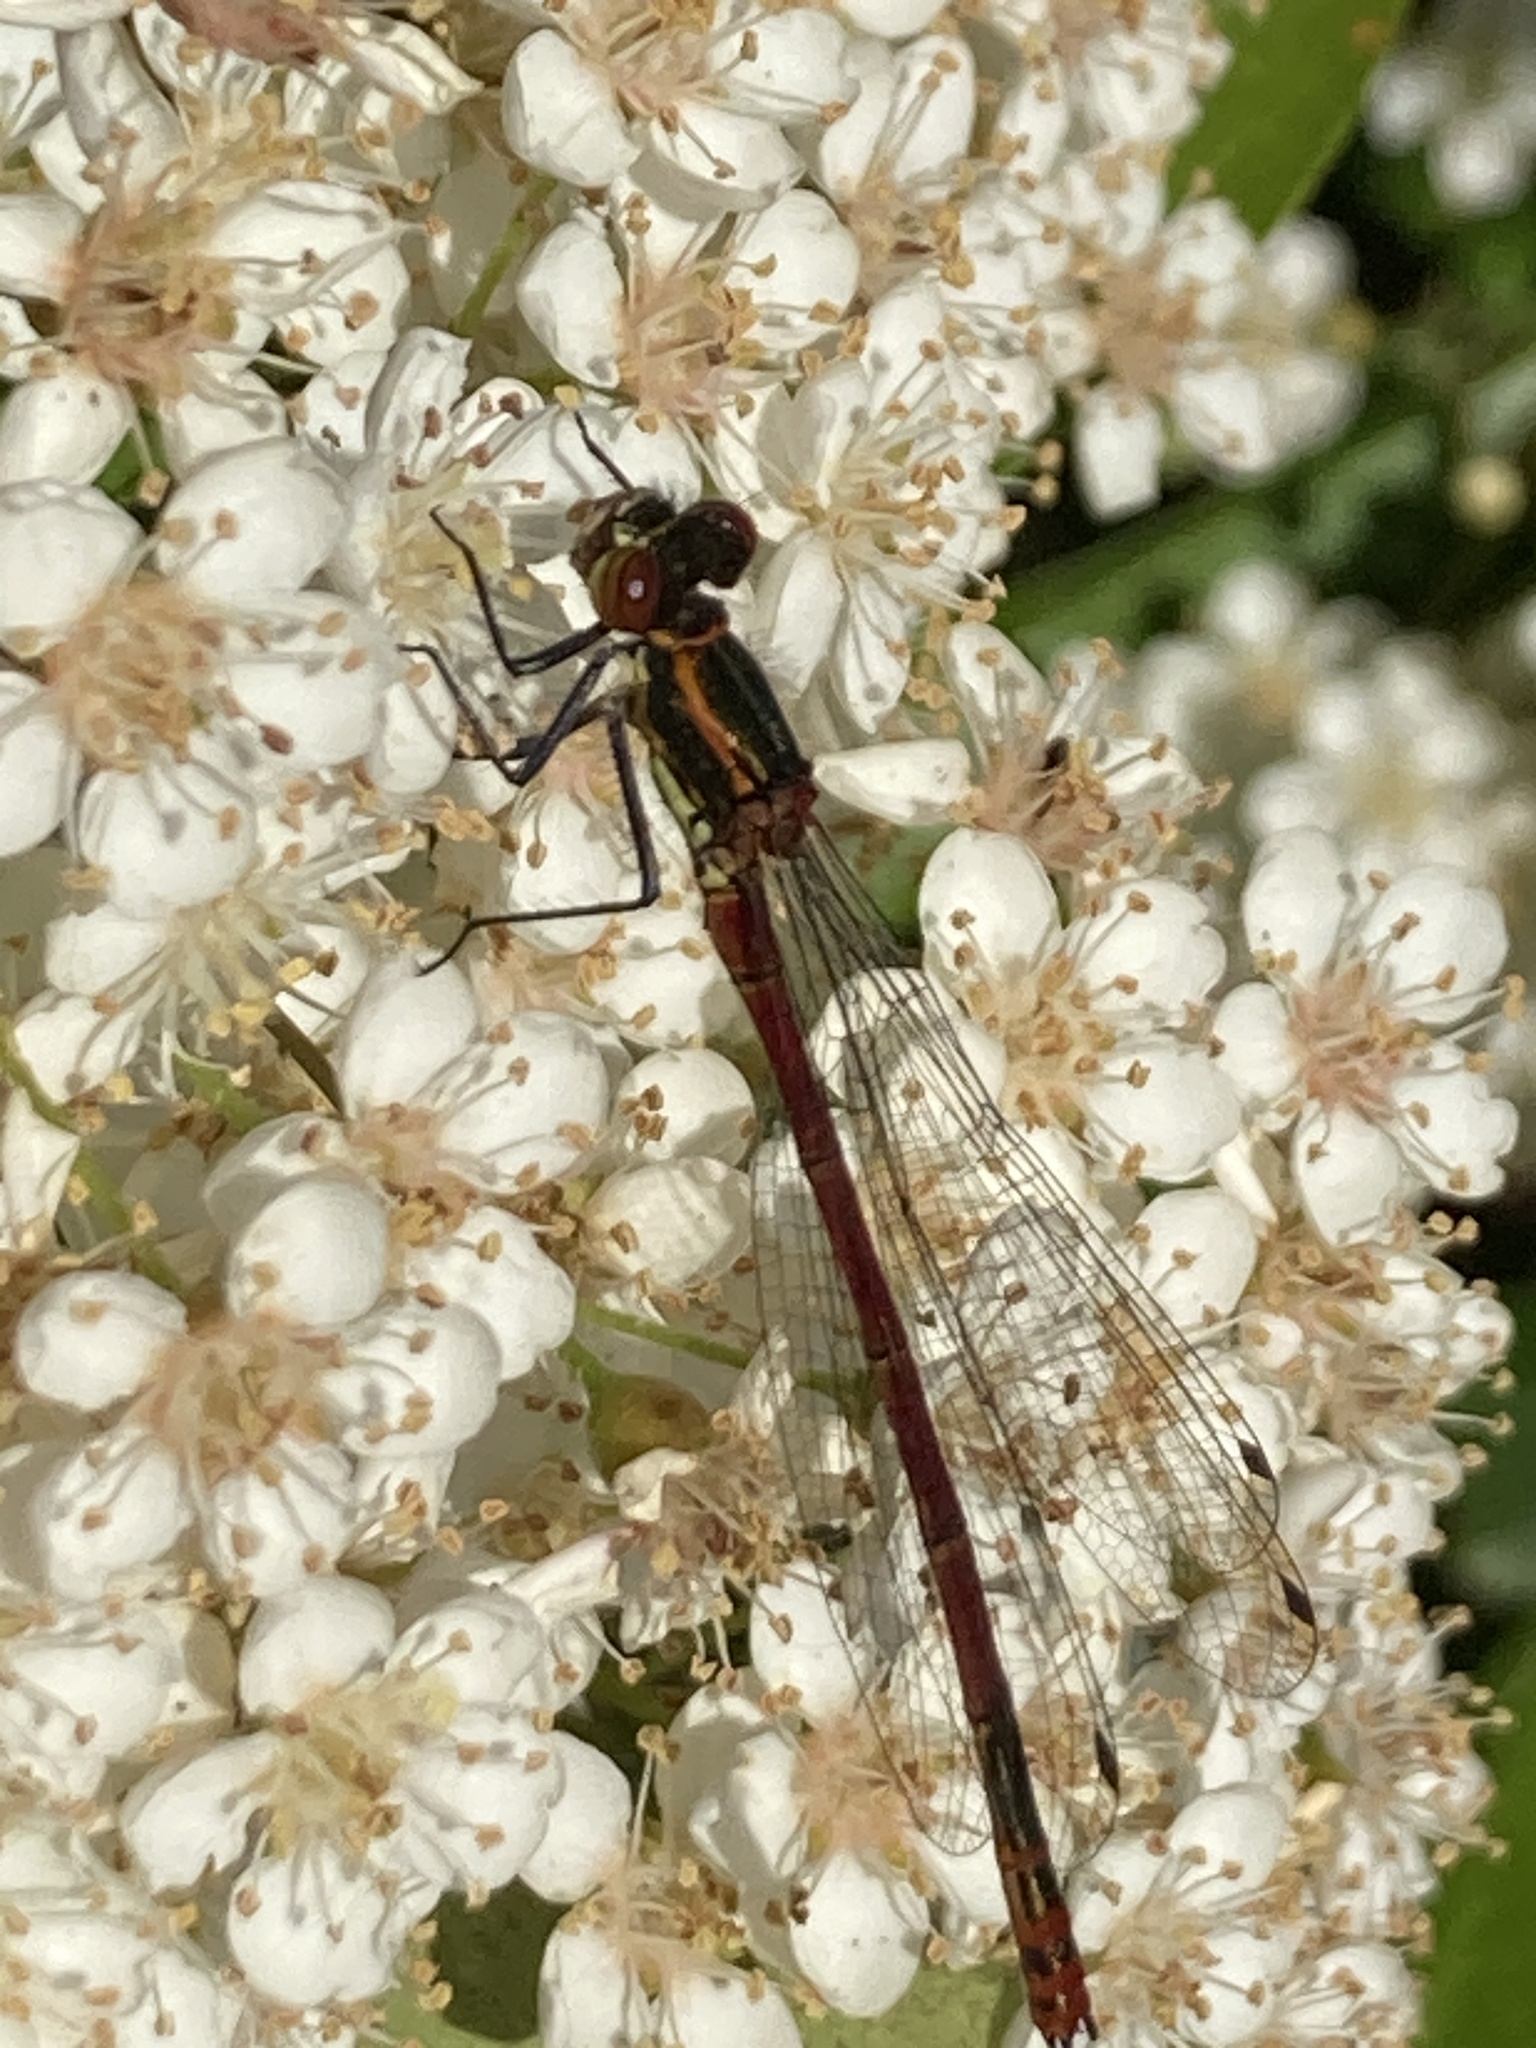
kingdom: Animalia
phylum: Arthropoda
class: Insecta
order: Odonata
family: Coenagrionidae
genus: Pyrrhosoma
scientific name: Pyrrhosoma nymphula
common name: Large red damsel
